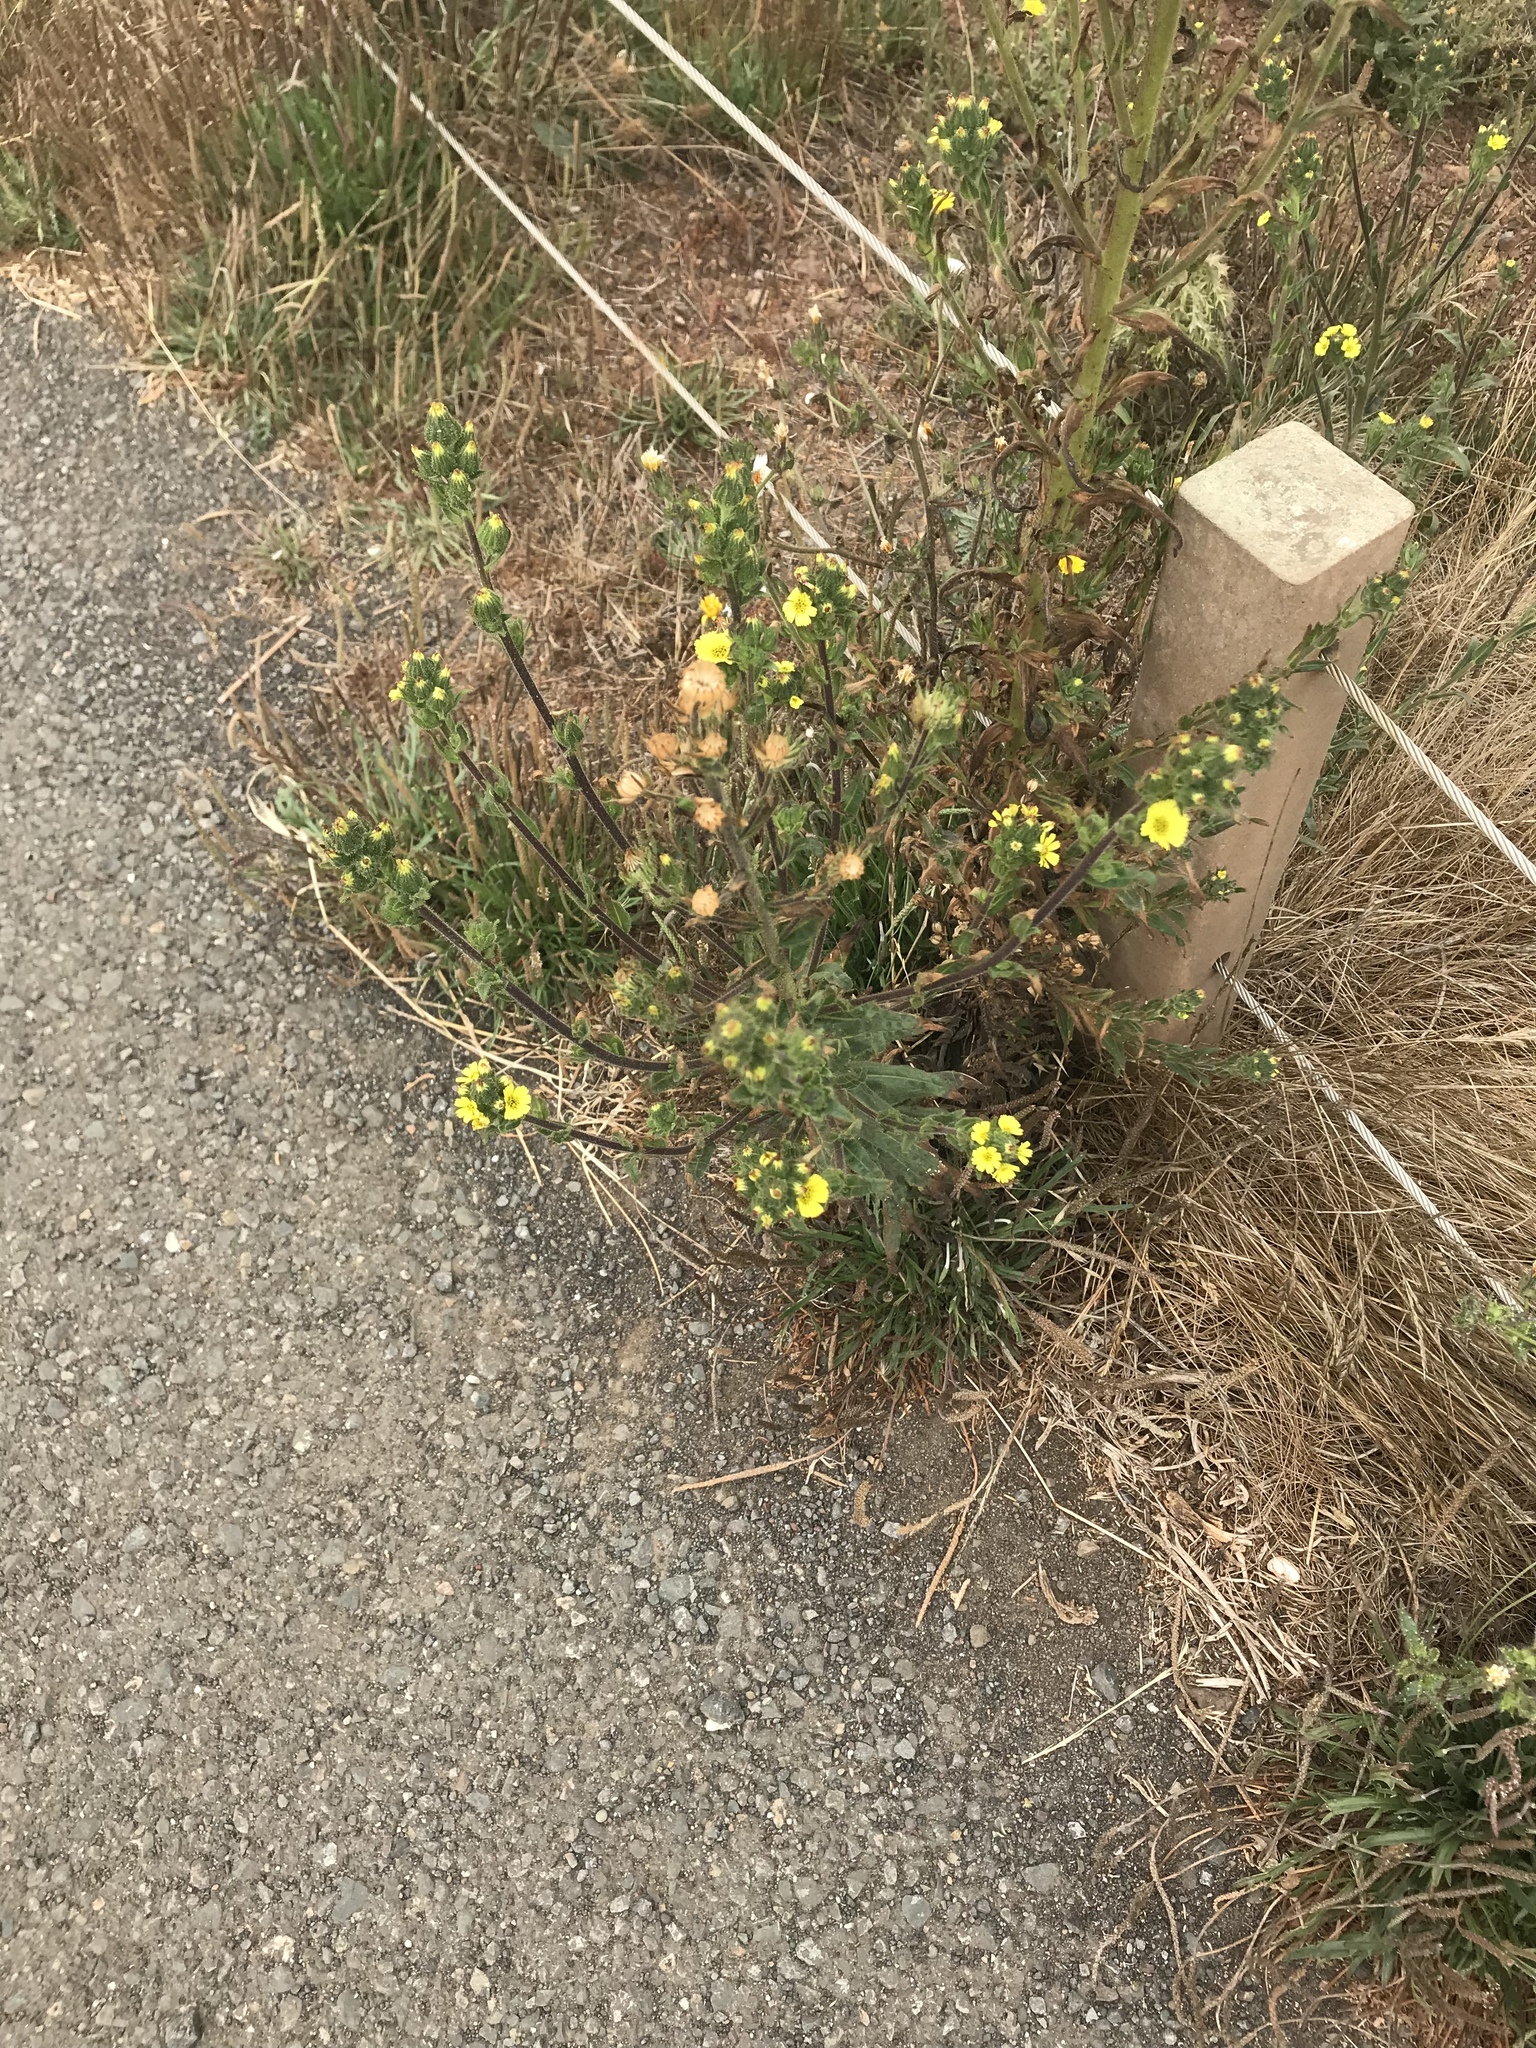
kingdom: Plantae
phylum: Tracheophyta
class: Magnoliopsida
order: Asterales
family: Asteraceae
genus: Madia
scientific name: Madia sativa
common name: Coast tarweed
